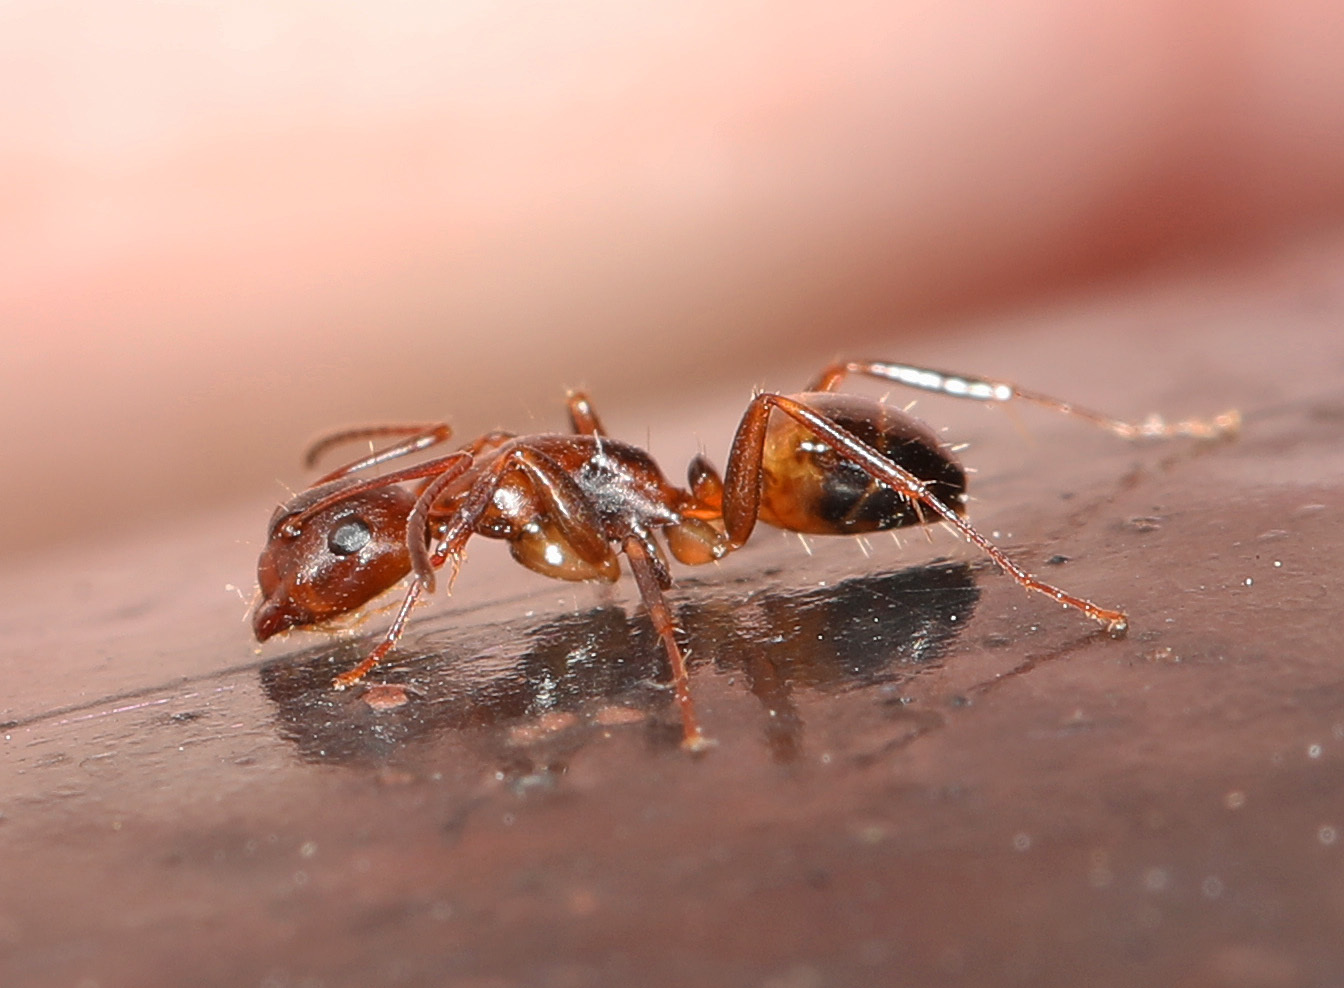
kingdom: Animalia
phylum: Arthropoda
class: Insecta
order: Hymenoptera
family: Formicidae
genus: Camponotus
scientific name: Camponotus subbarbatus
